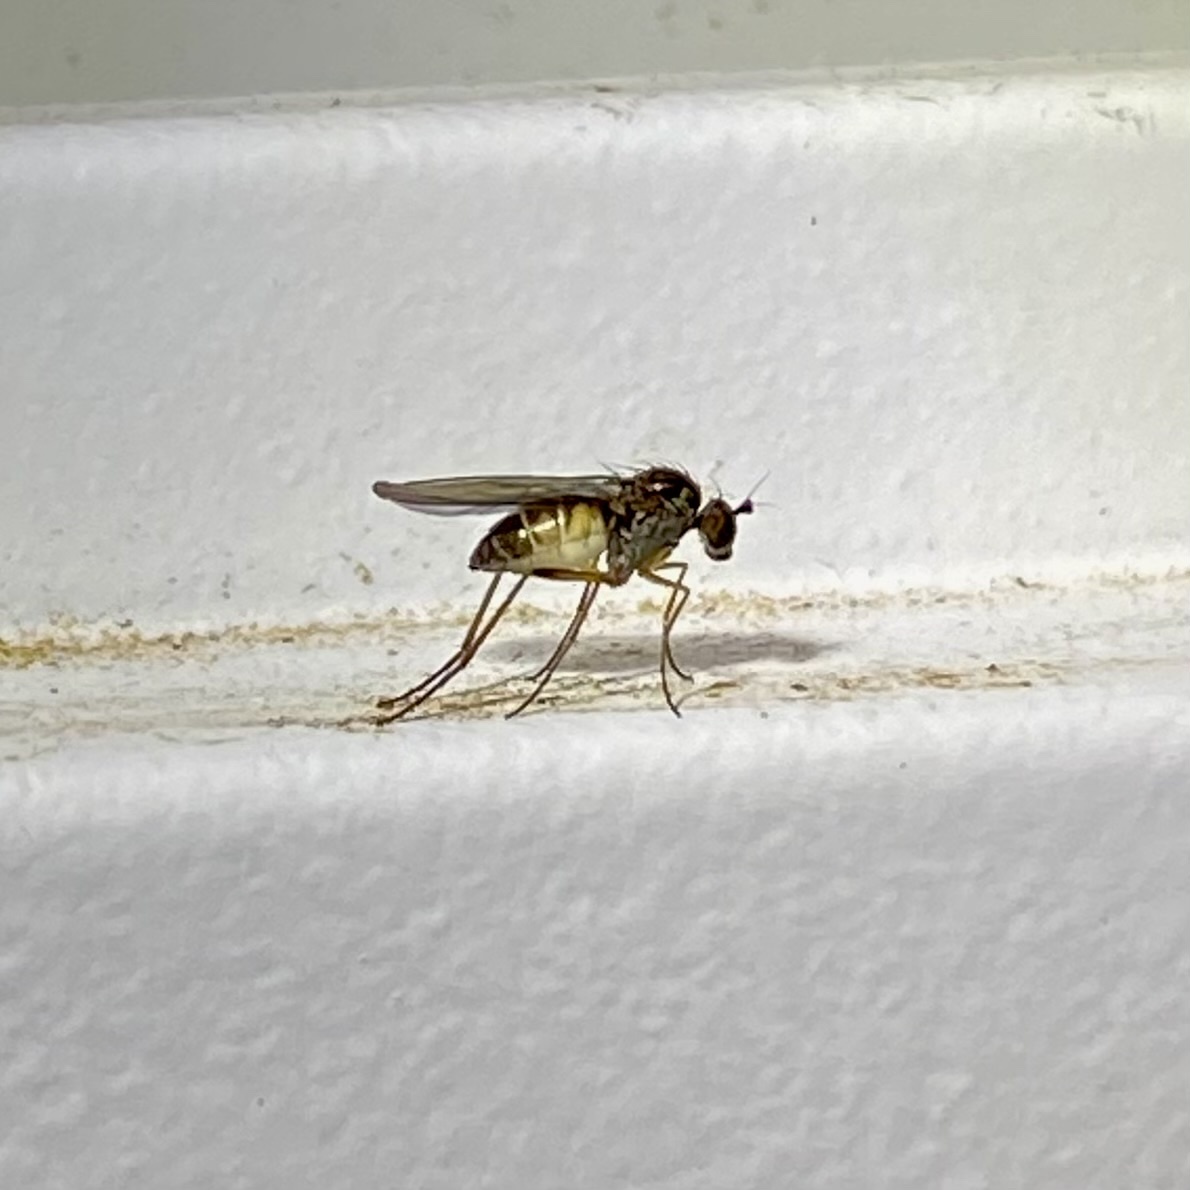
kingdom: Animalia
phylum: Arthropoda
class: Insecta
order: Diptera
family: Dolichopodidae
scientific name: Dolichopodidae
